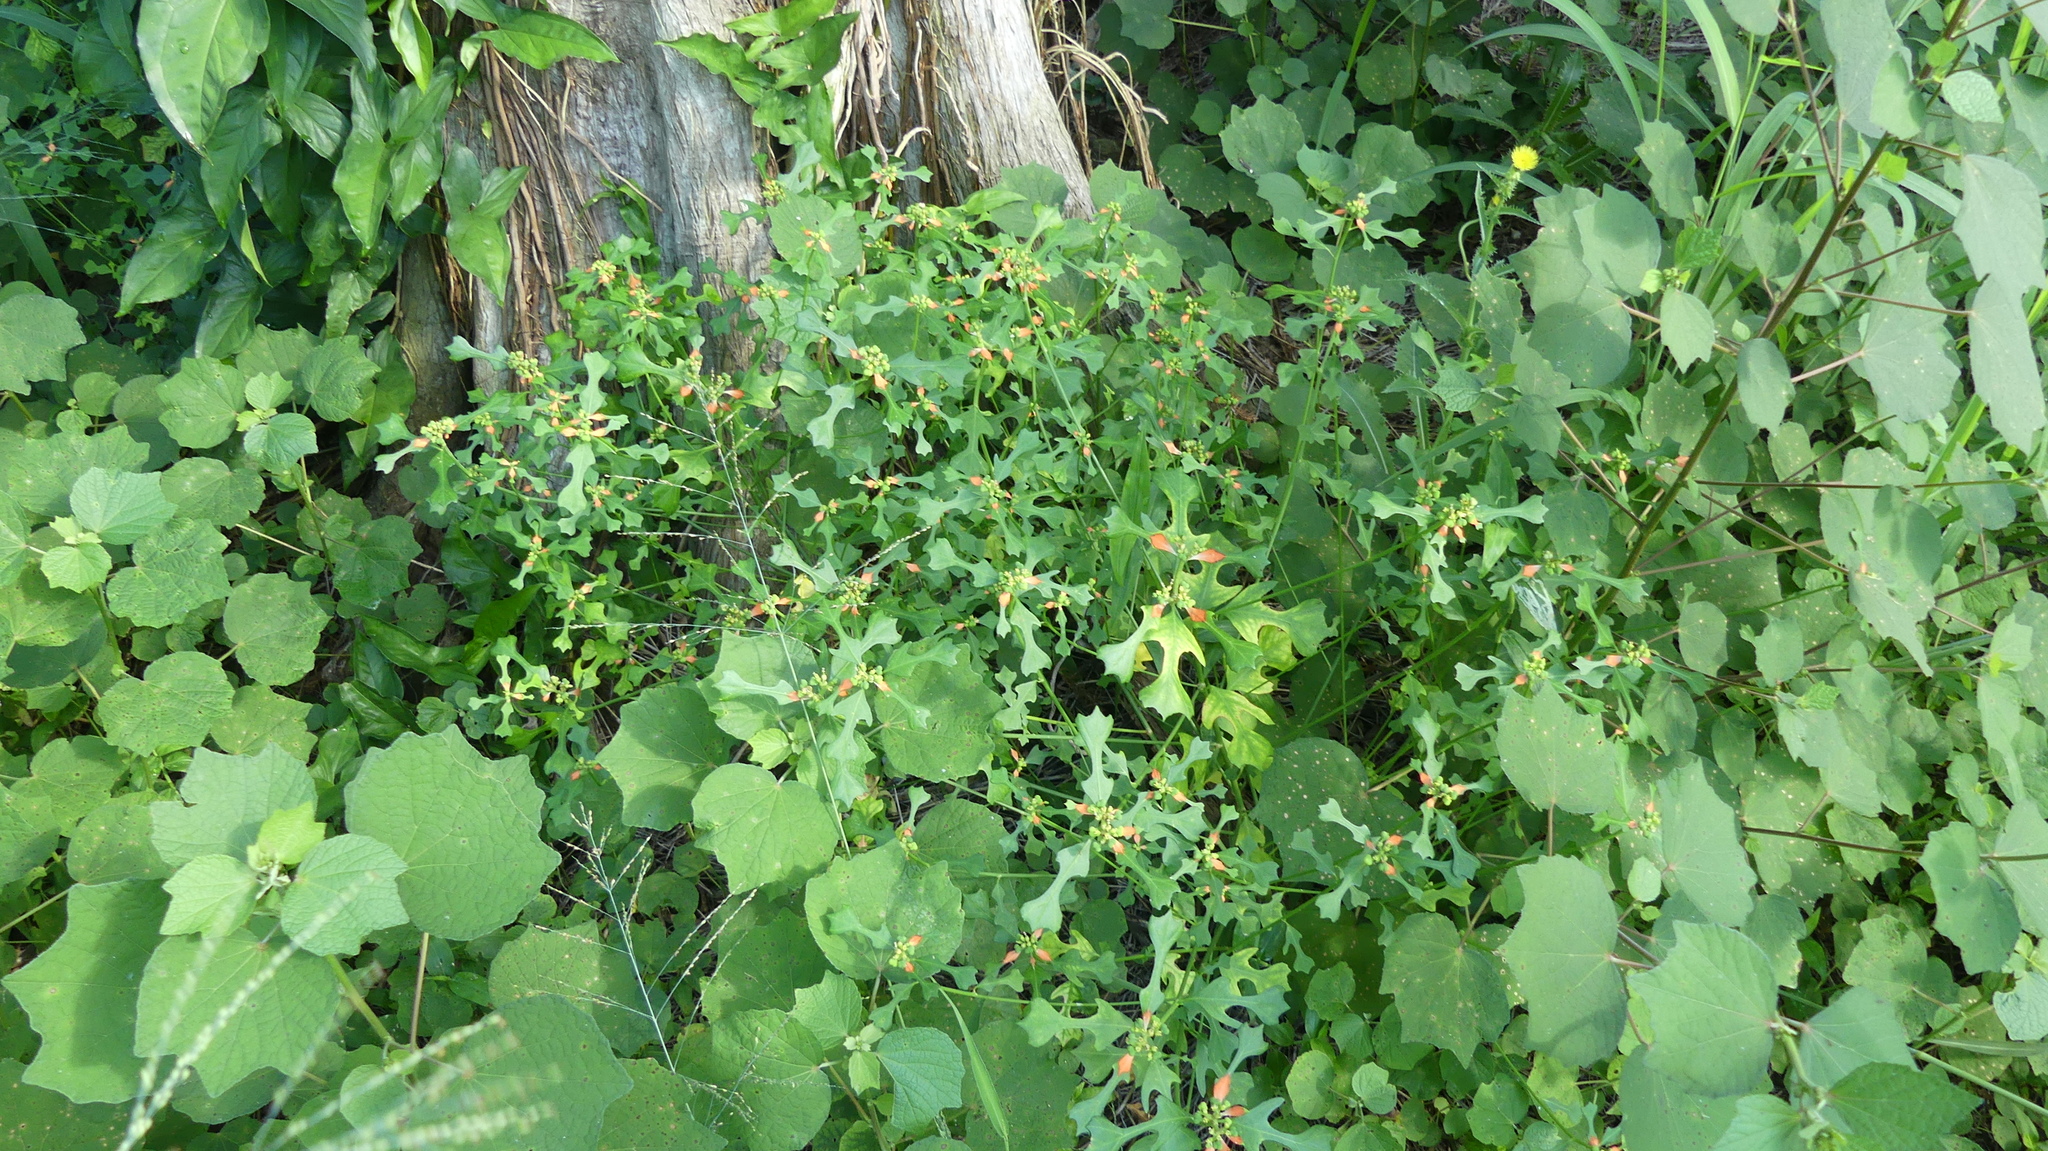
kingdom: Plantae
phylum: Tracheophyta
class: Magnoliopsida
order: Malpighiales
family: Euphorbiaceae
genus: Euphorbia
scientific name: Euphorbia heterophylla
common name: Mexican fireplant
